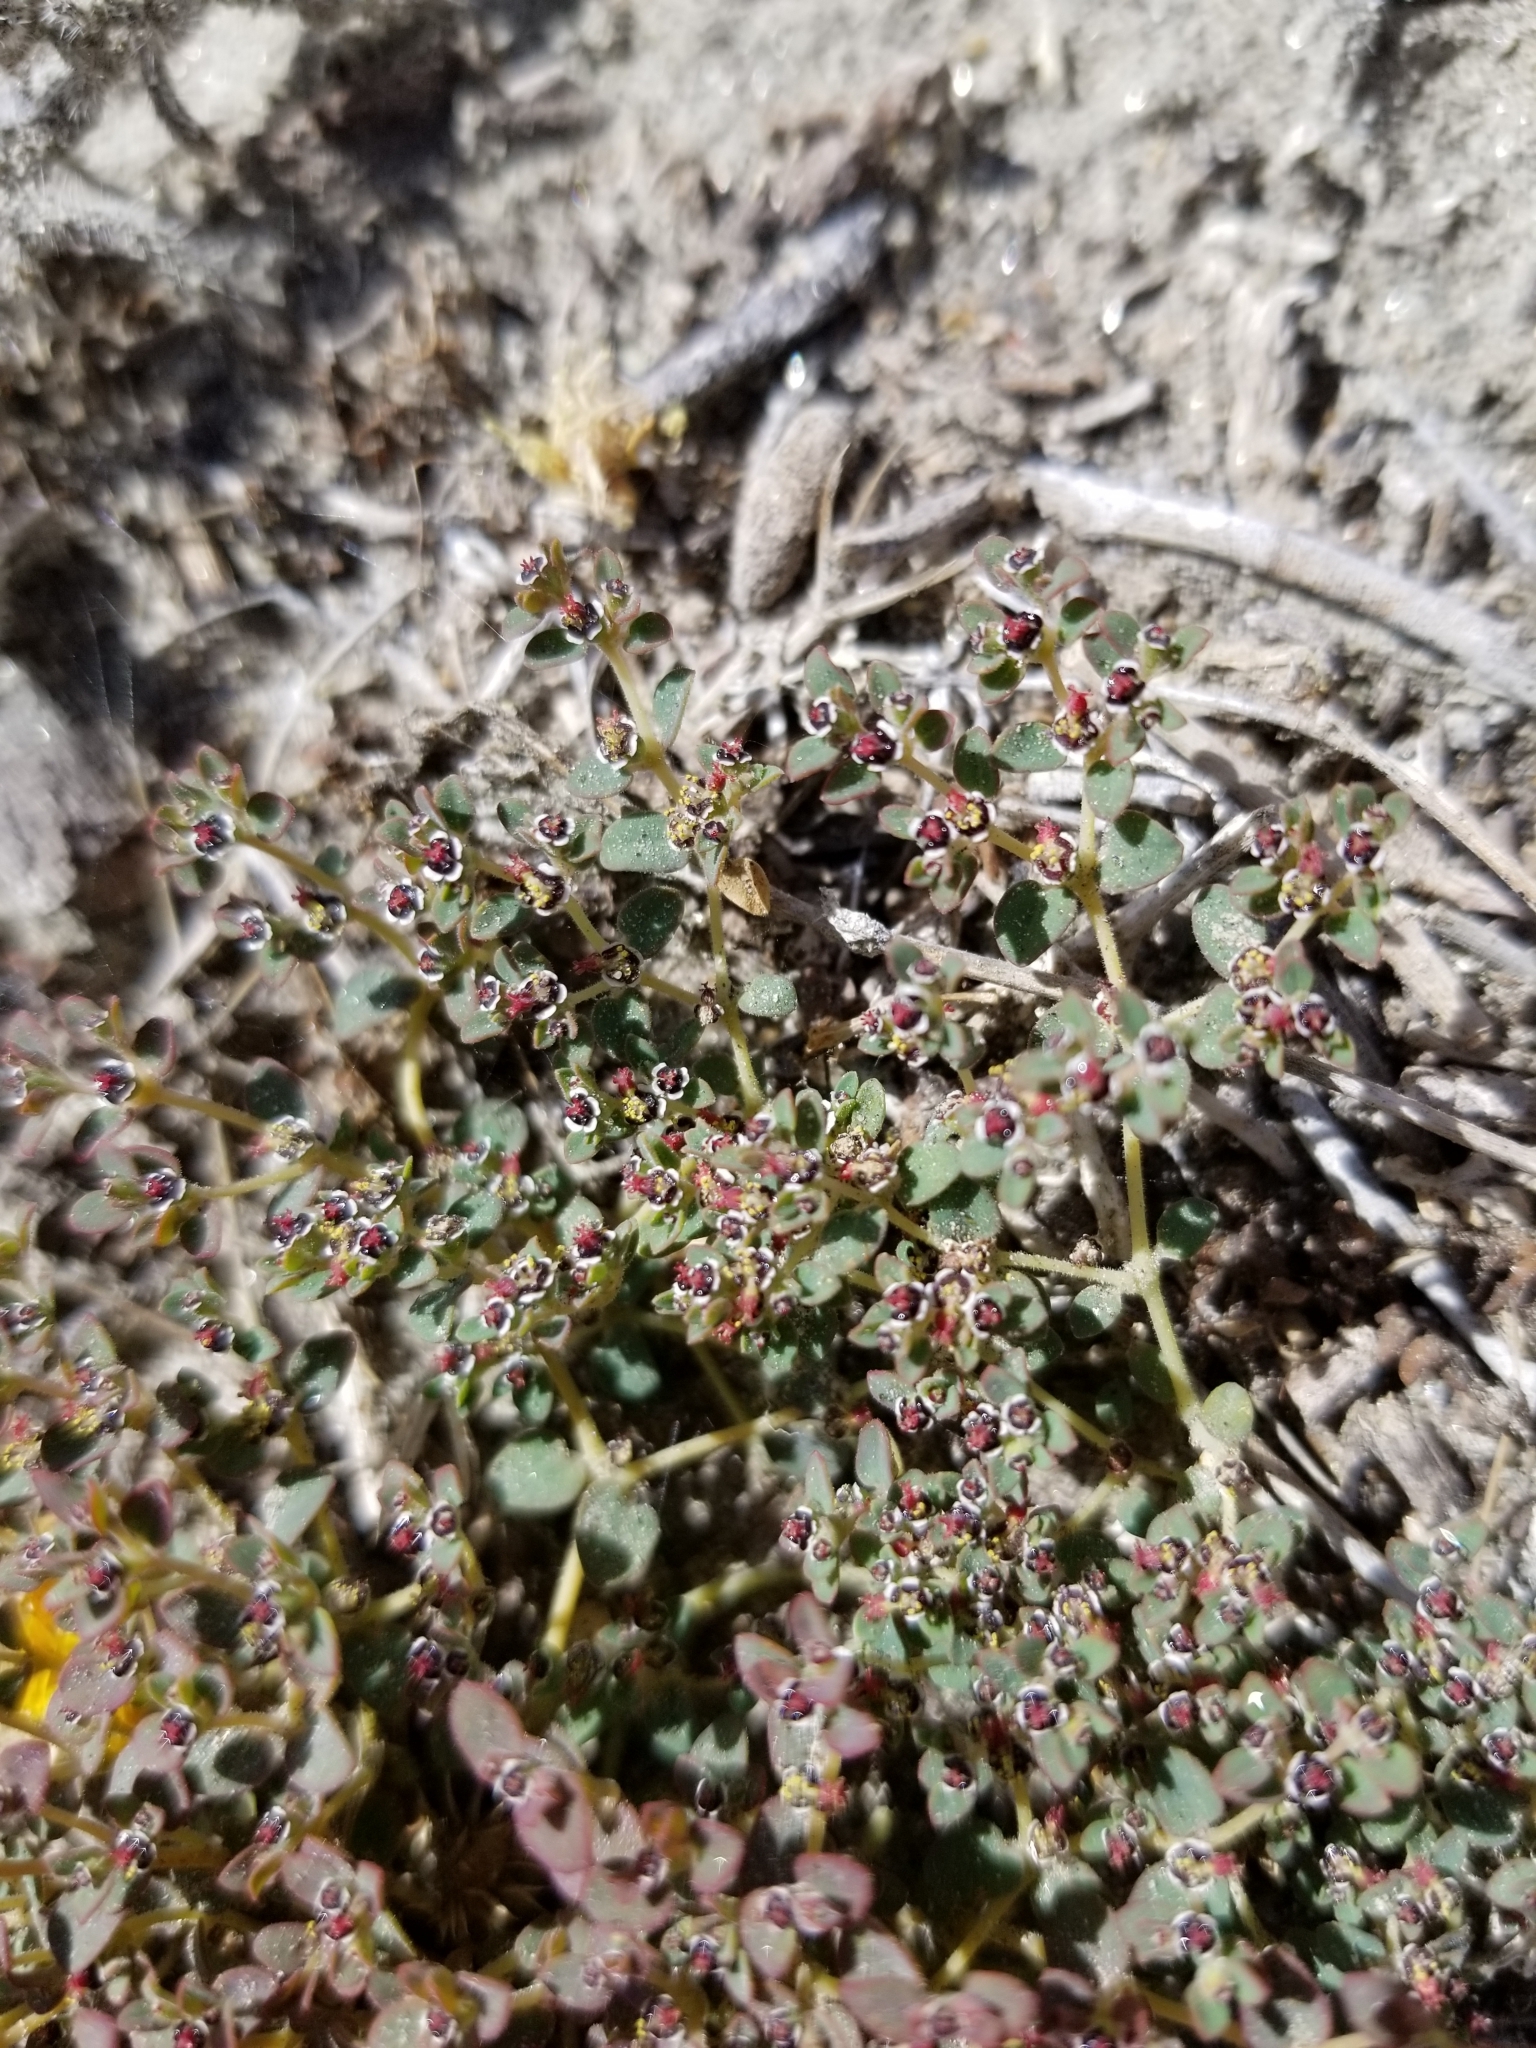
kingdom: Plantae
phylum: Tracheophyta
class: Magnoliopsida
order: Malpighiales
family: Euphorbiaceae
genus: Euphorbia
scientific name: Euphorbia polycarpa
